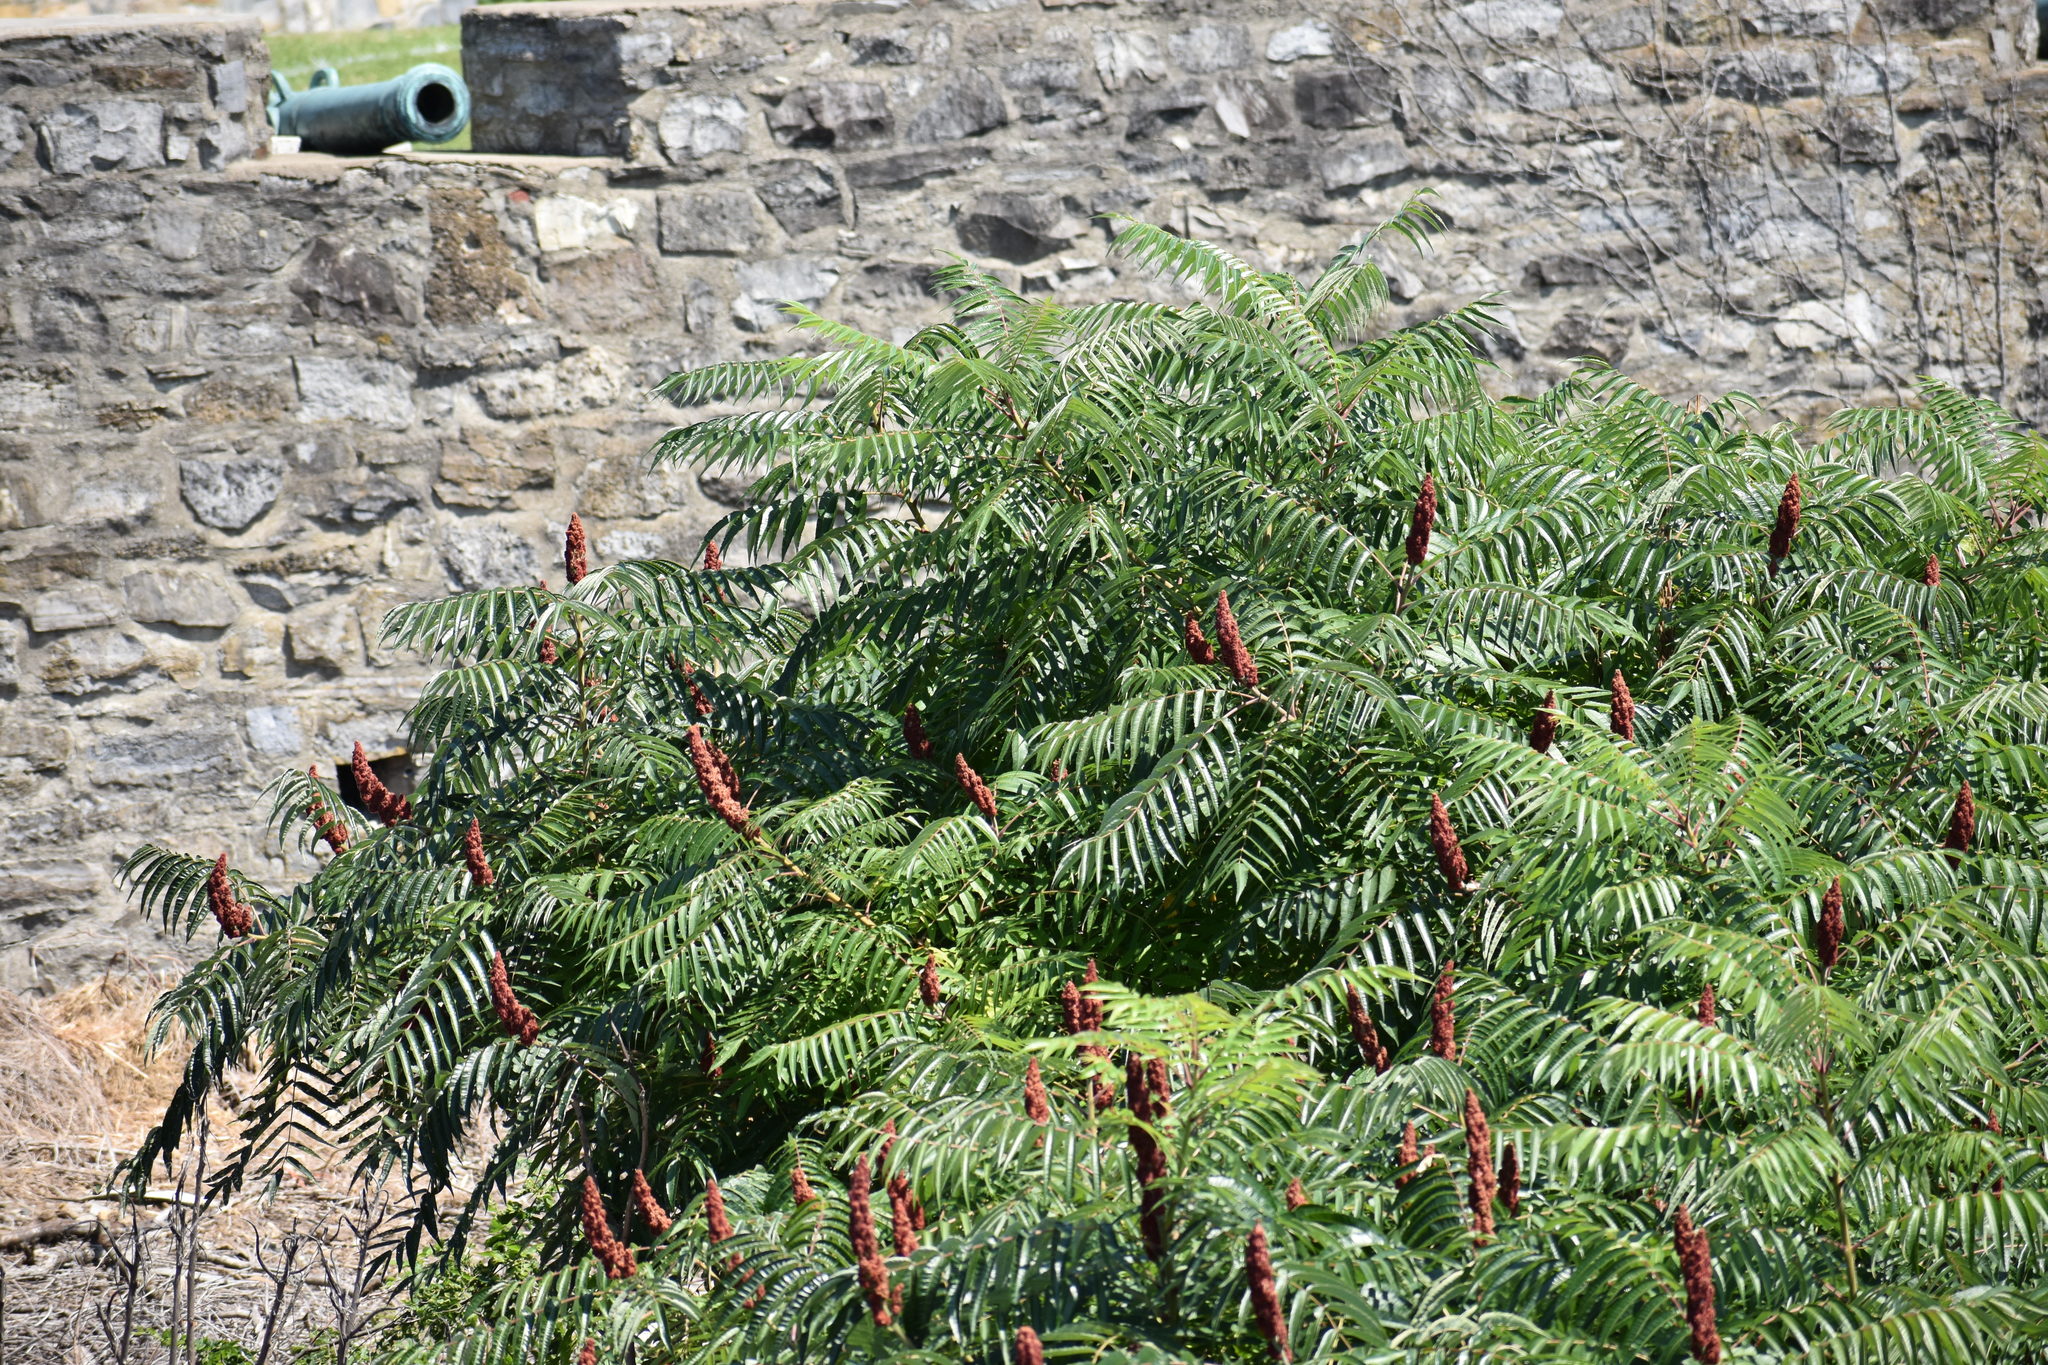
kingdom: Plantae
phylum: Tracheophyta
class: Magnoliopsida
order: Sapindales
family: Anacardiaceae
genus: Rhus
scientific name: Rhus typhina
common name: Staghorn sumac
